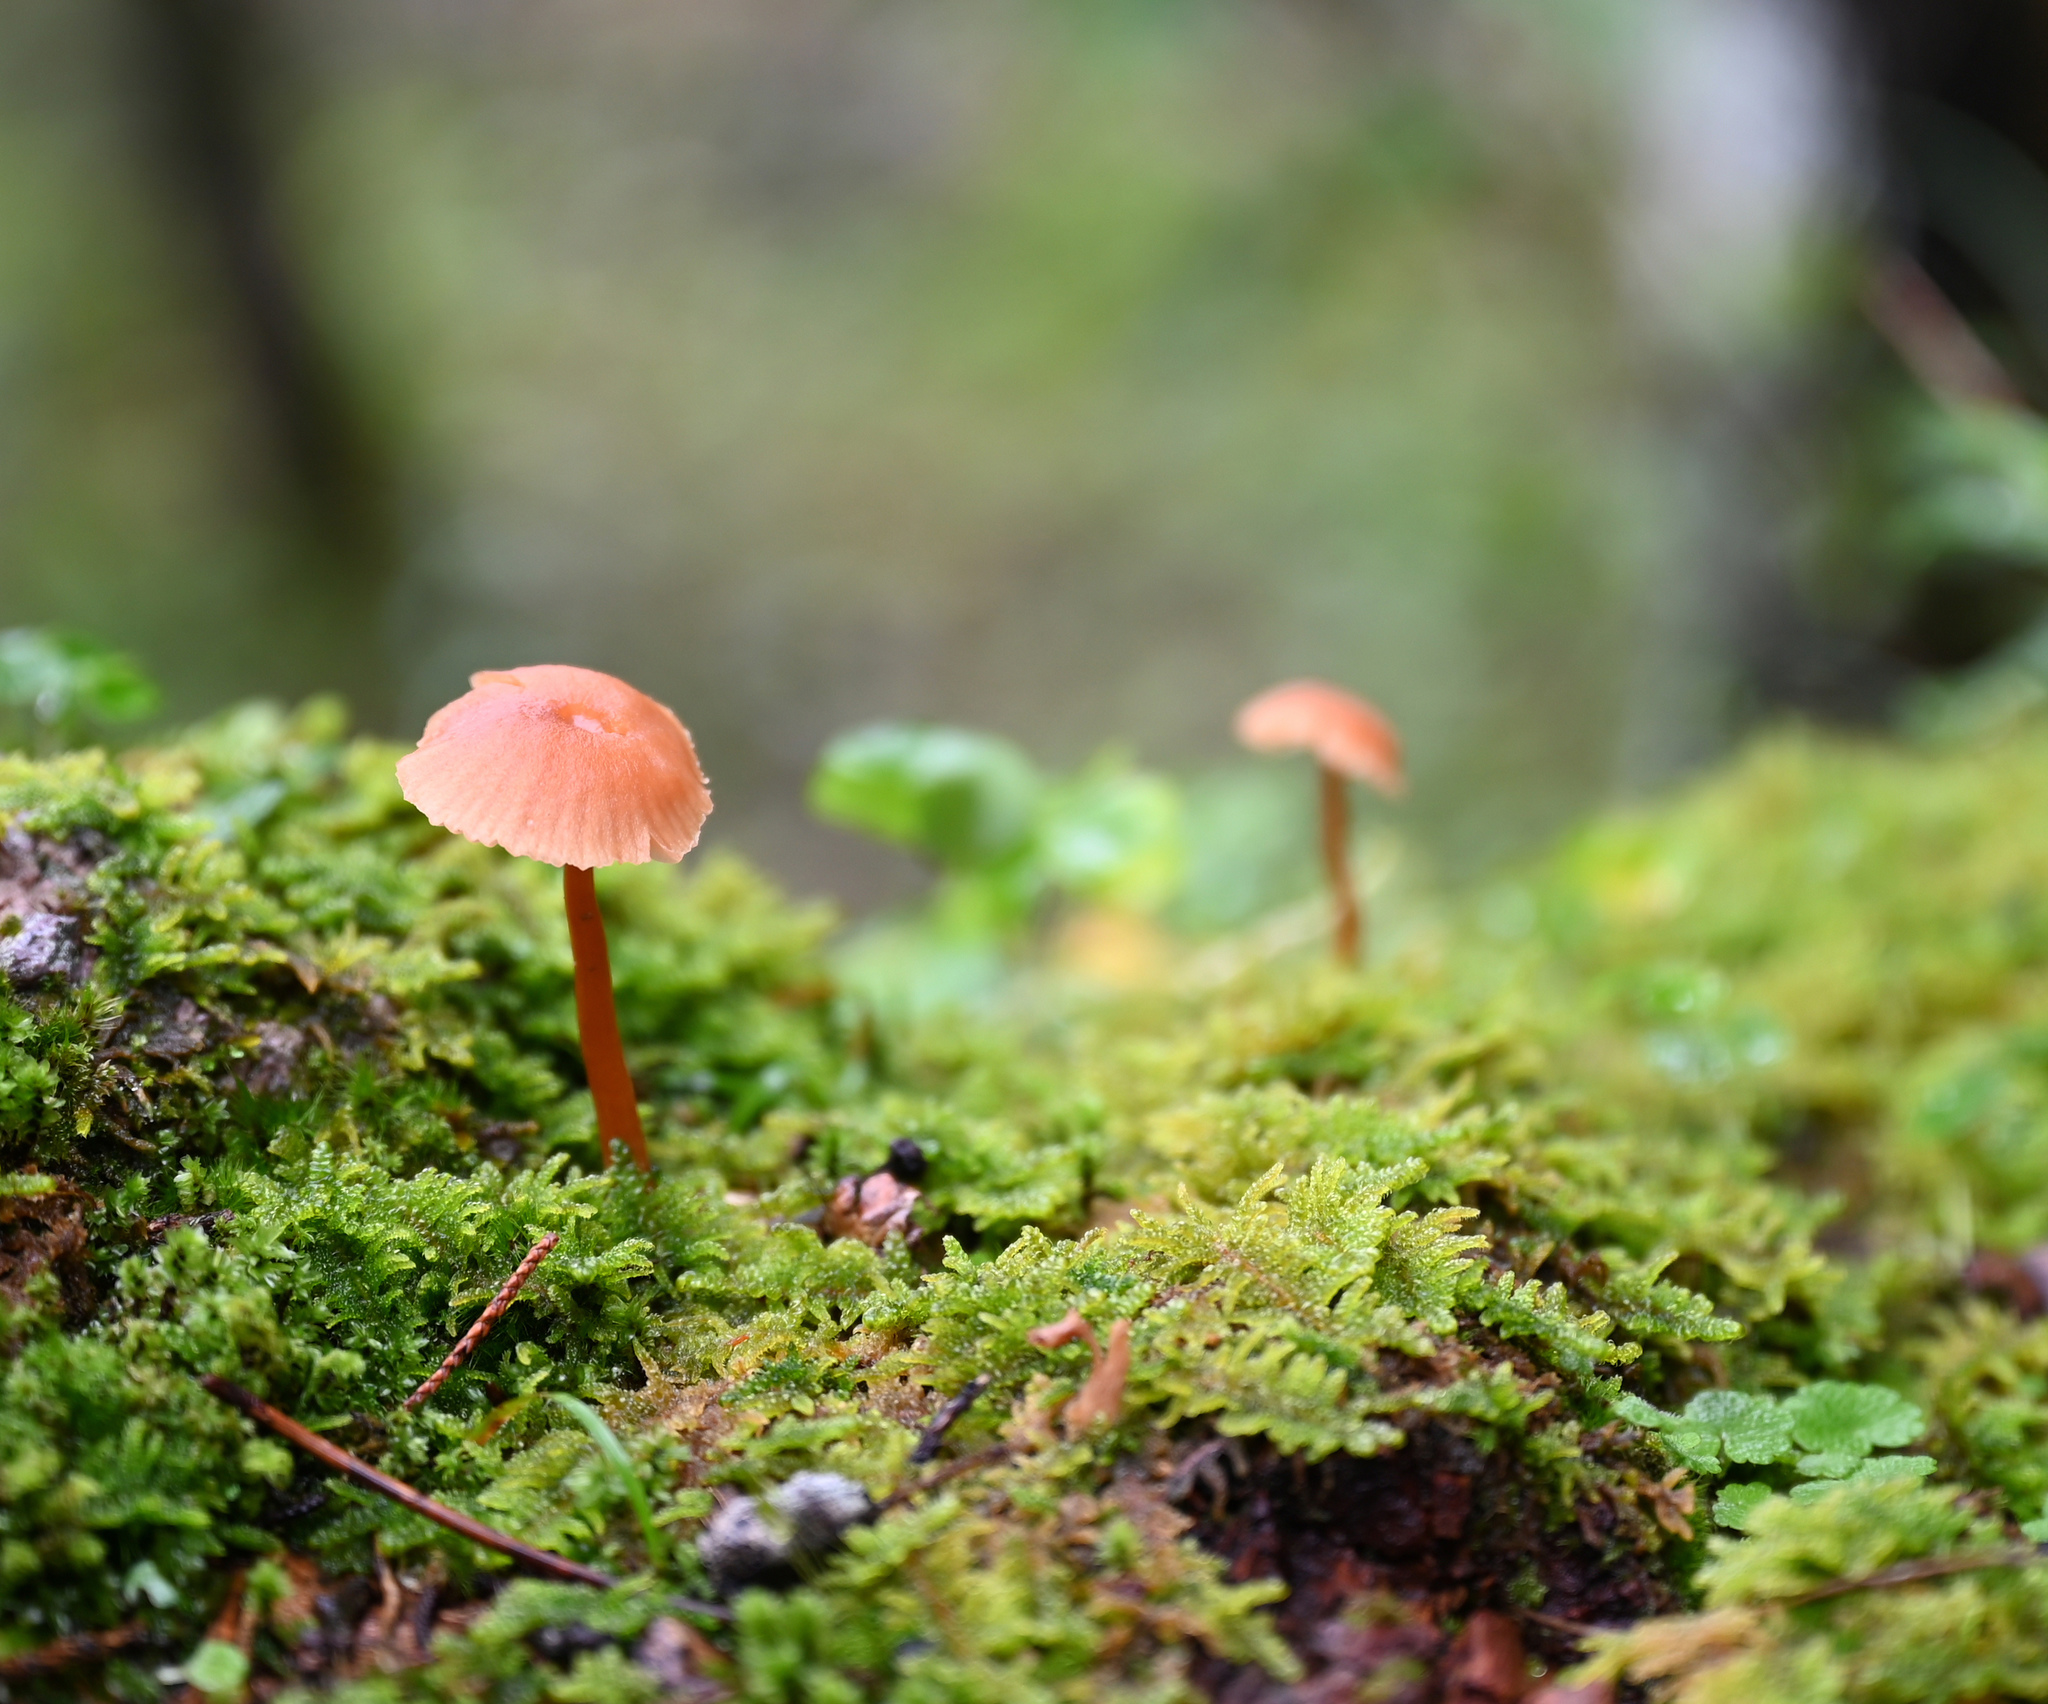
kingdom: Fungi
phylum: Basidiomycota
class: Agaricomycetes
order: Agaricales
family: Hydnangiaceae
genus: Laccaria
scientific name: Laccaria laccata
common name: Deceiver
